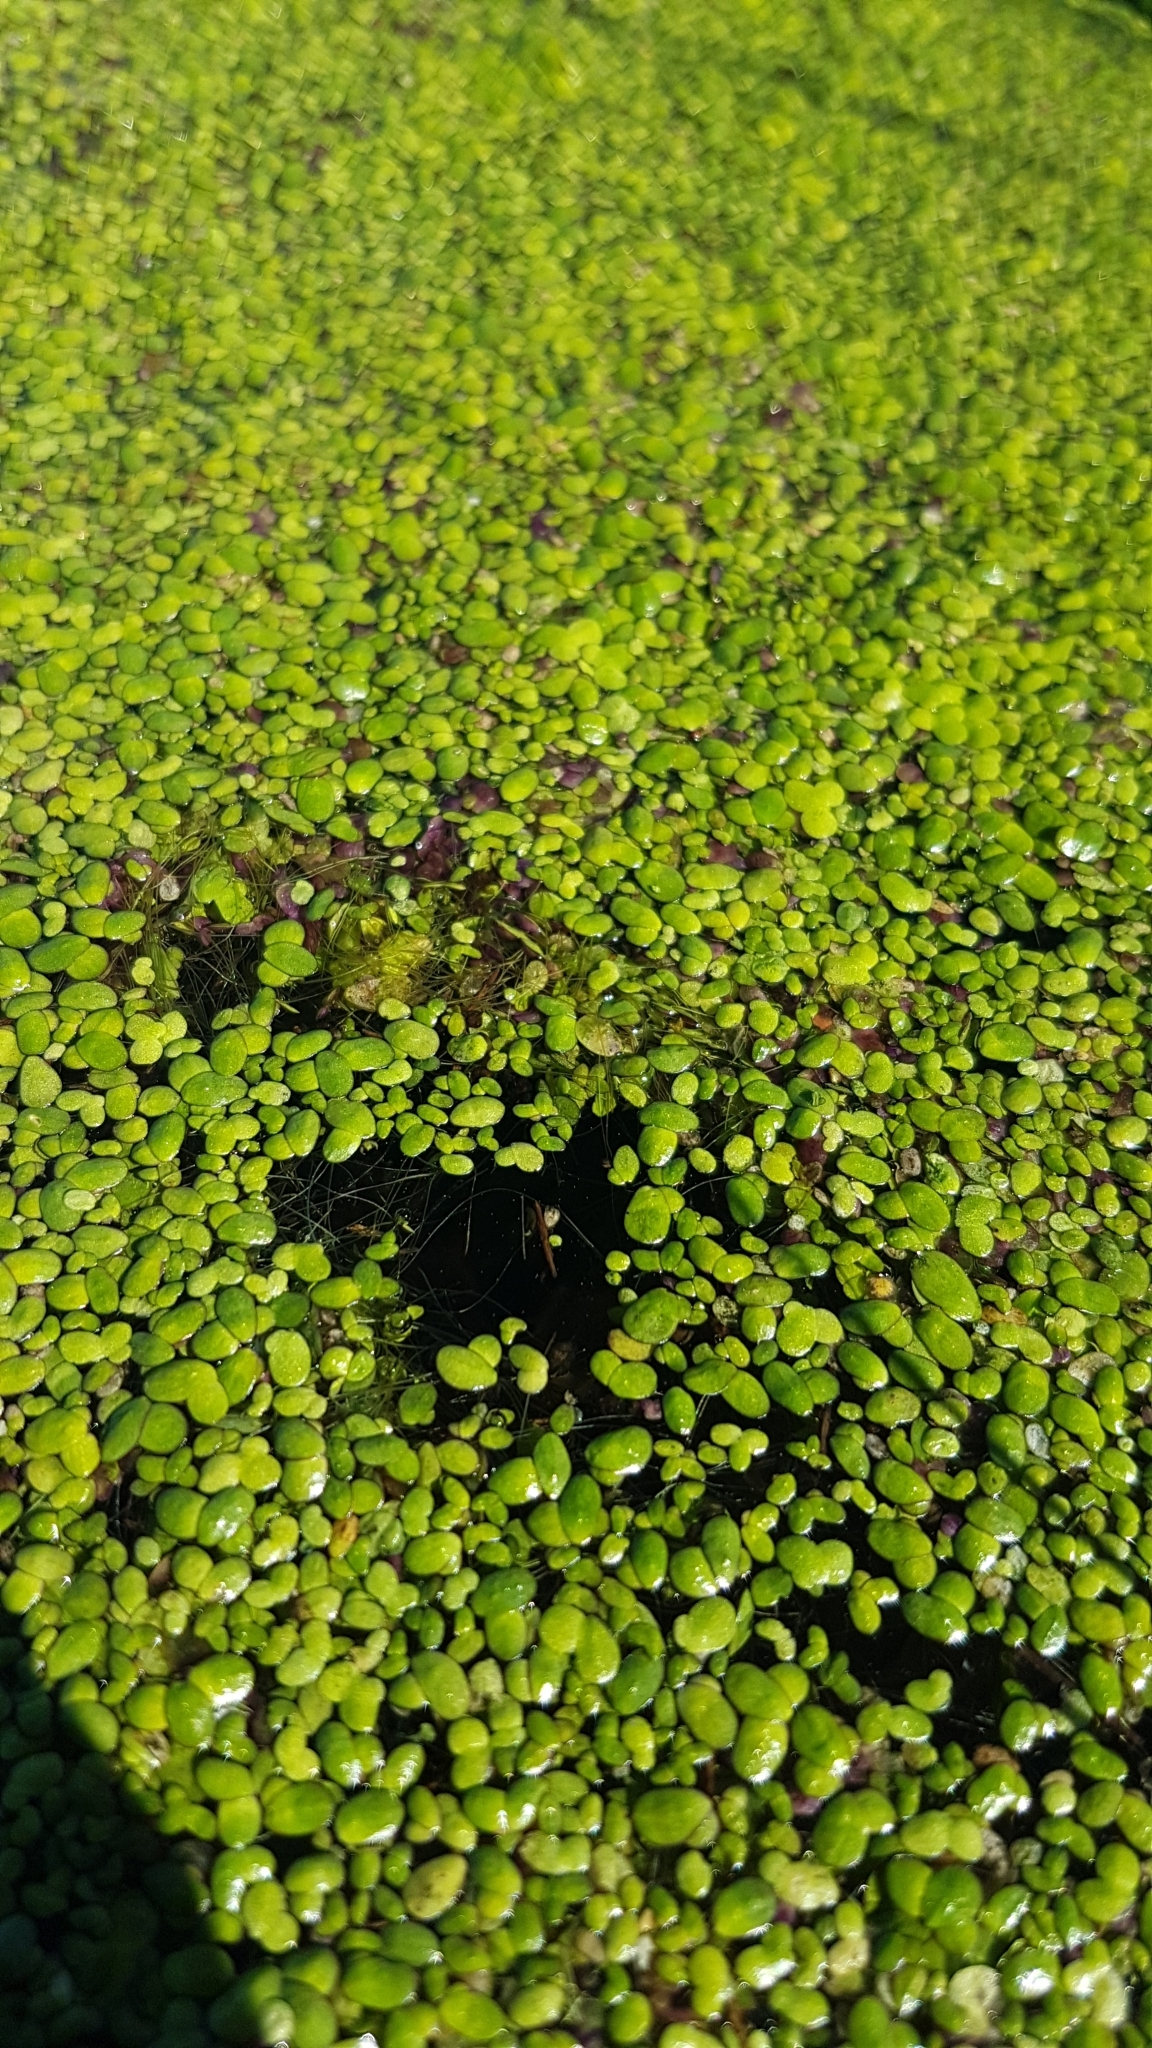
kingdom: Plantae
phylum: Tracheophyta
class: Liliopsida
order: Alismatales
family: Araceae
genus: Lemna
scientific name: Lemna disperma
